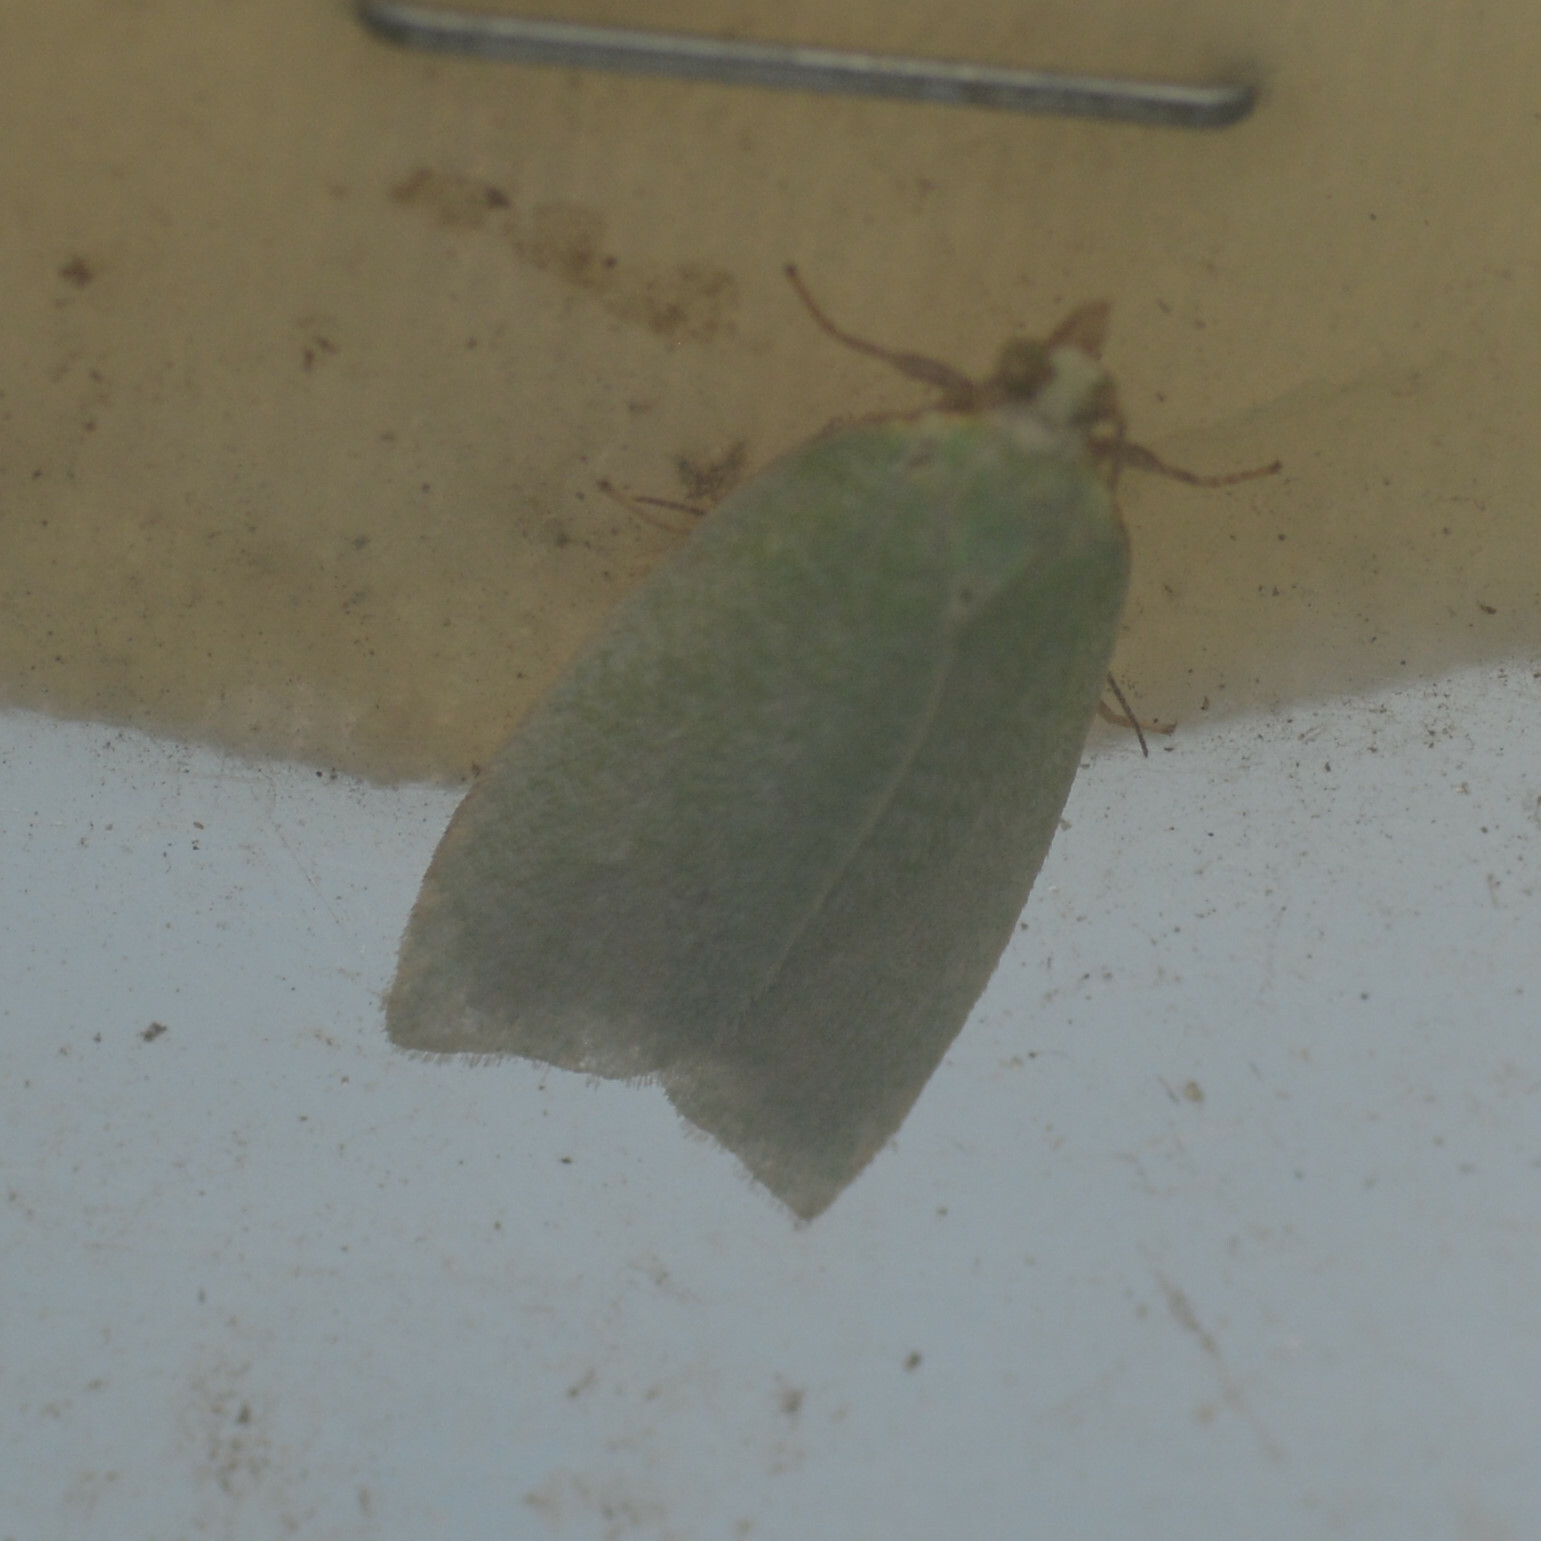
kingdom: Animalia
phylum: Arthropoda
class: Insecta
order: Lepidoptera
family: Tortricidae
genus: Tortrix
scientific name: Tortrix viridana
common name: Green oak tortrix
